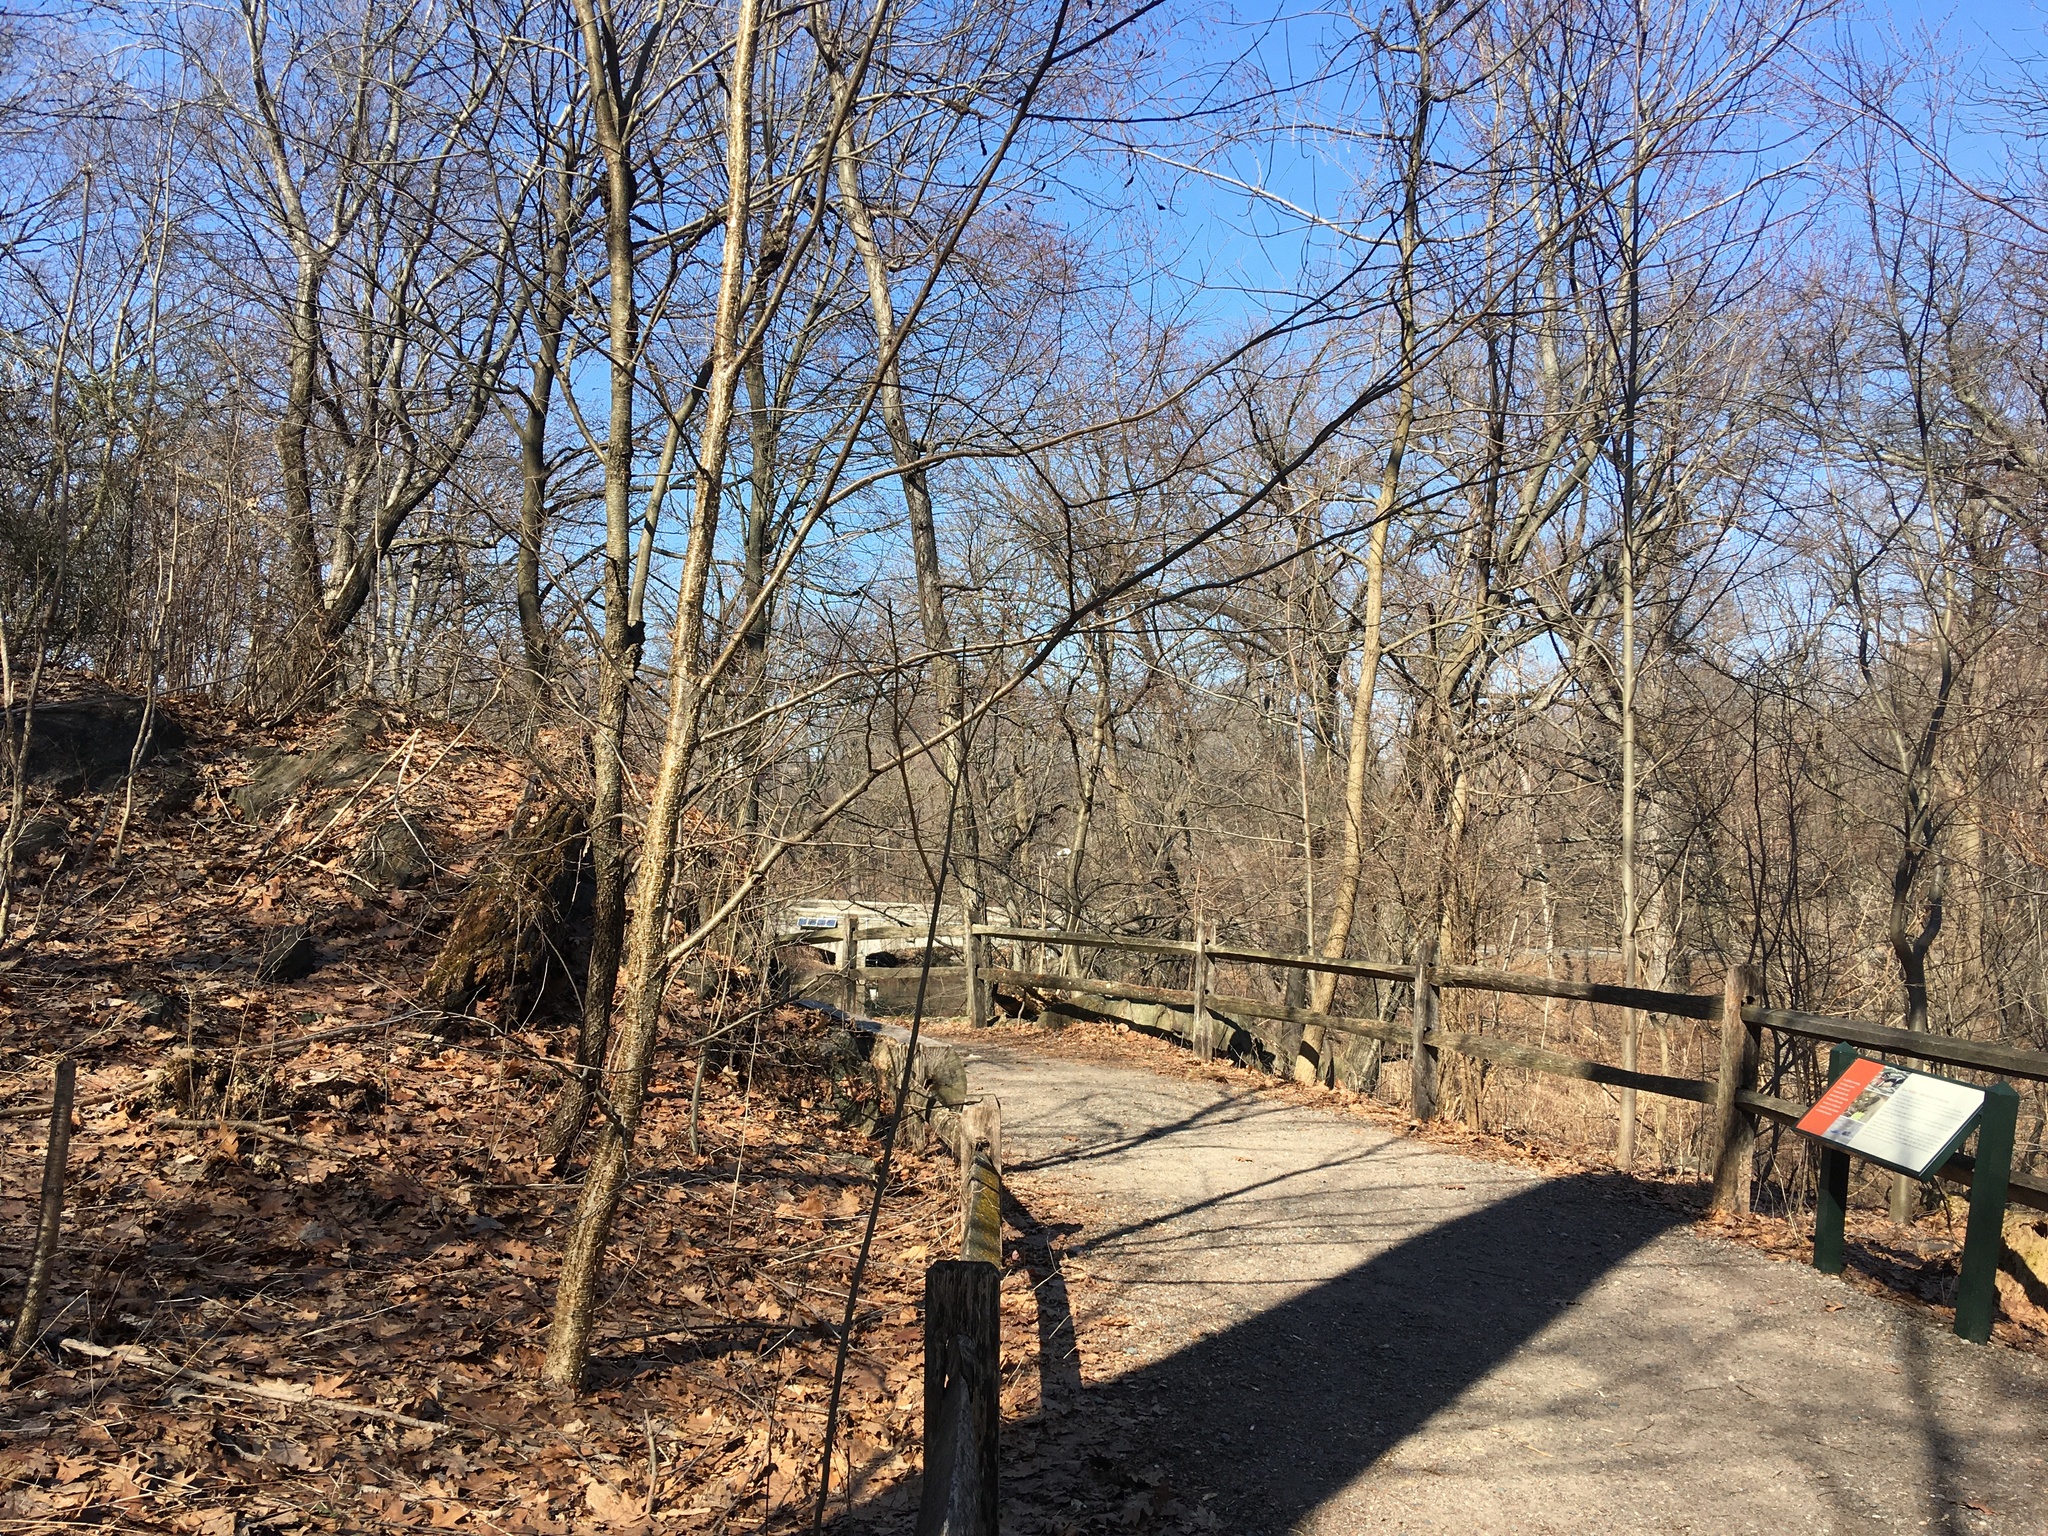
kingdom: Plantae
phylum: Tracheophyta
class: Magnoliopsida
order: Fagales
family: Betulaceae
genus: Betula
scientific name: Betula alleghaniensis
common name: Yellow birch
